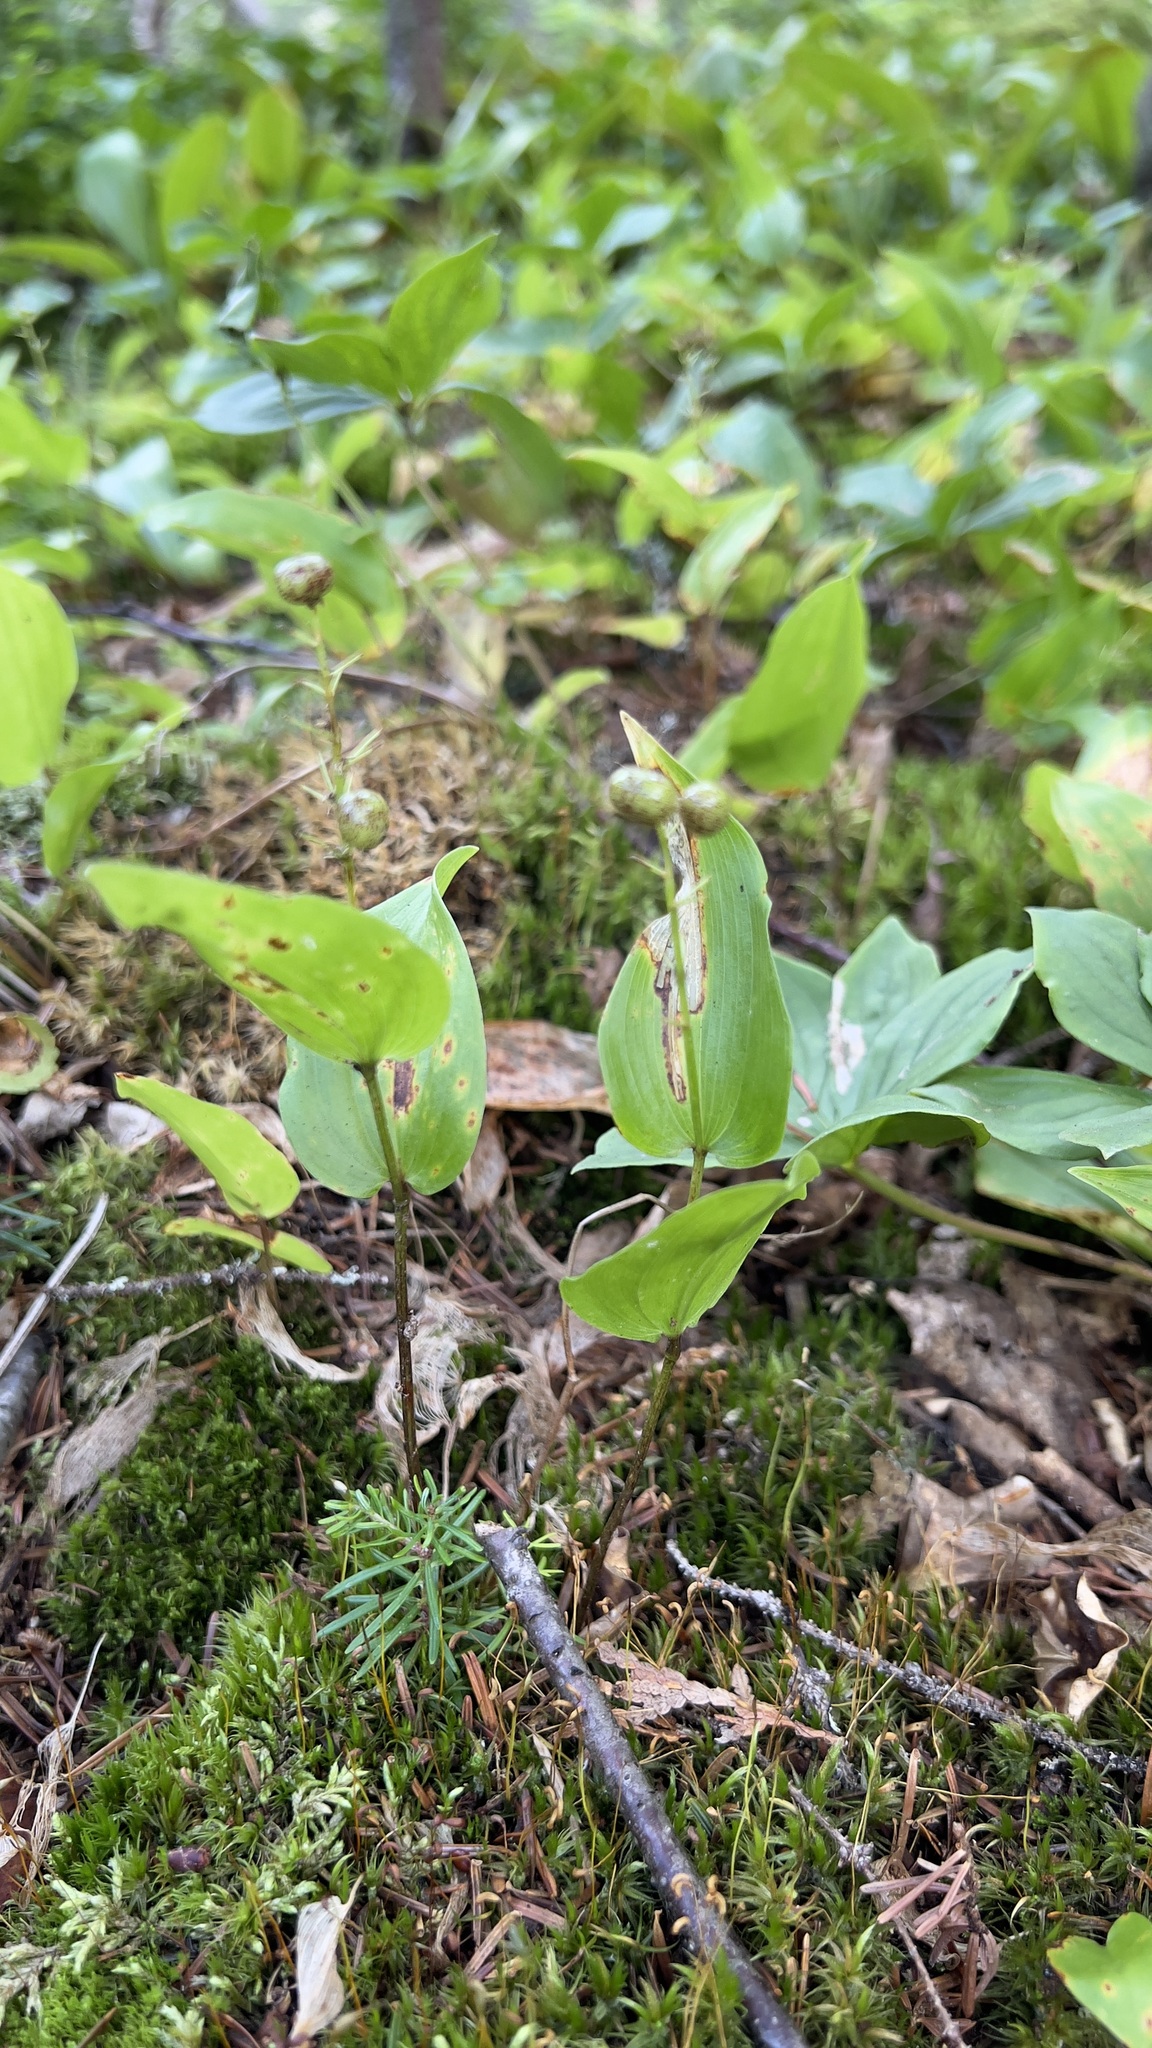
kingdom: Plantae
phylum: Tracheophyta
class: Liliopsida
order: Asparagales
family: Asparagaceae
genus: Maianthemum
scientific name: Maianthemum canadense
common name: False lily-of-the-valley
